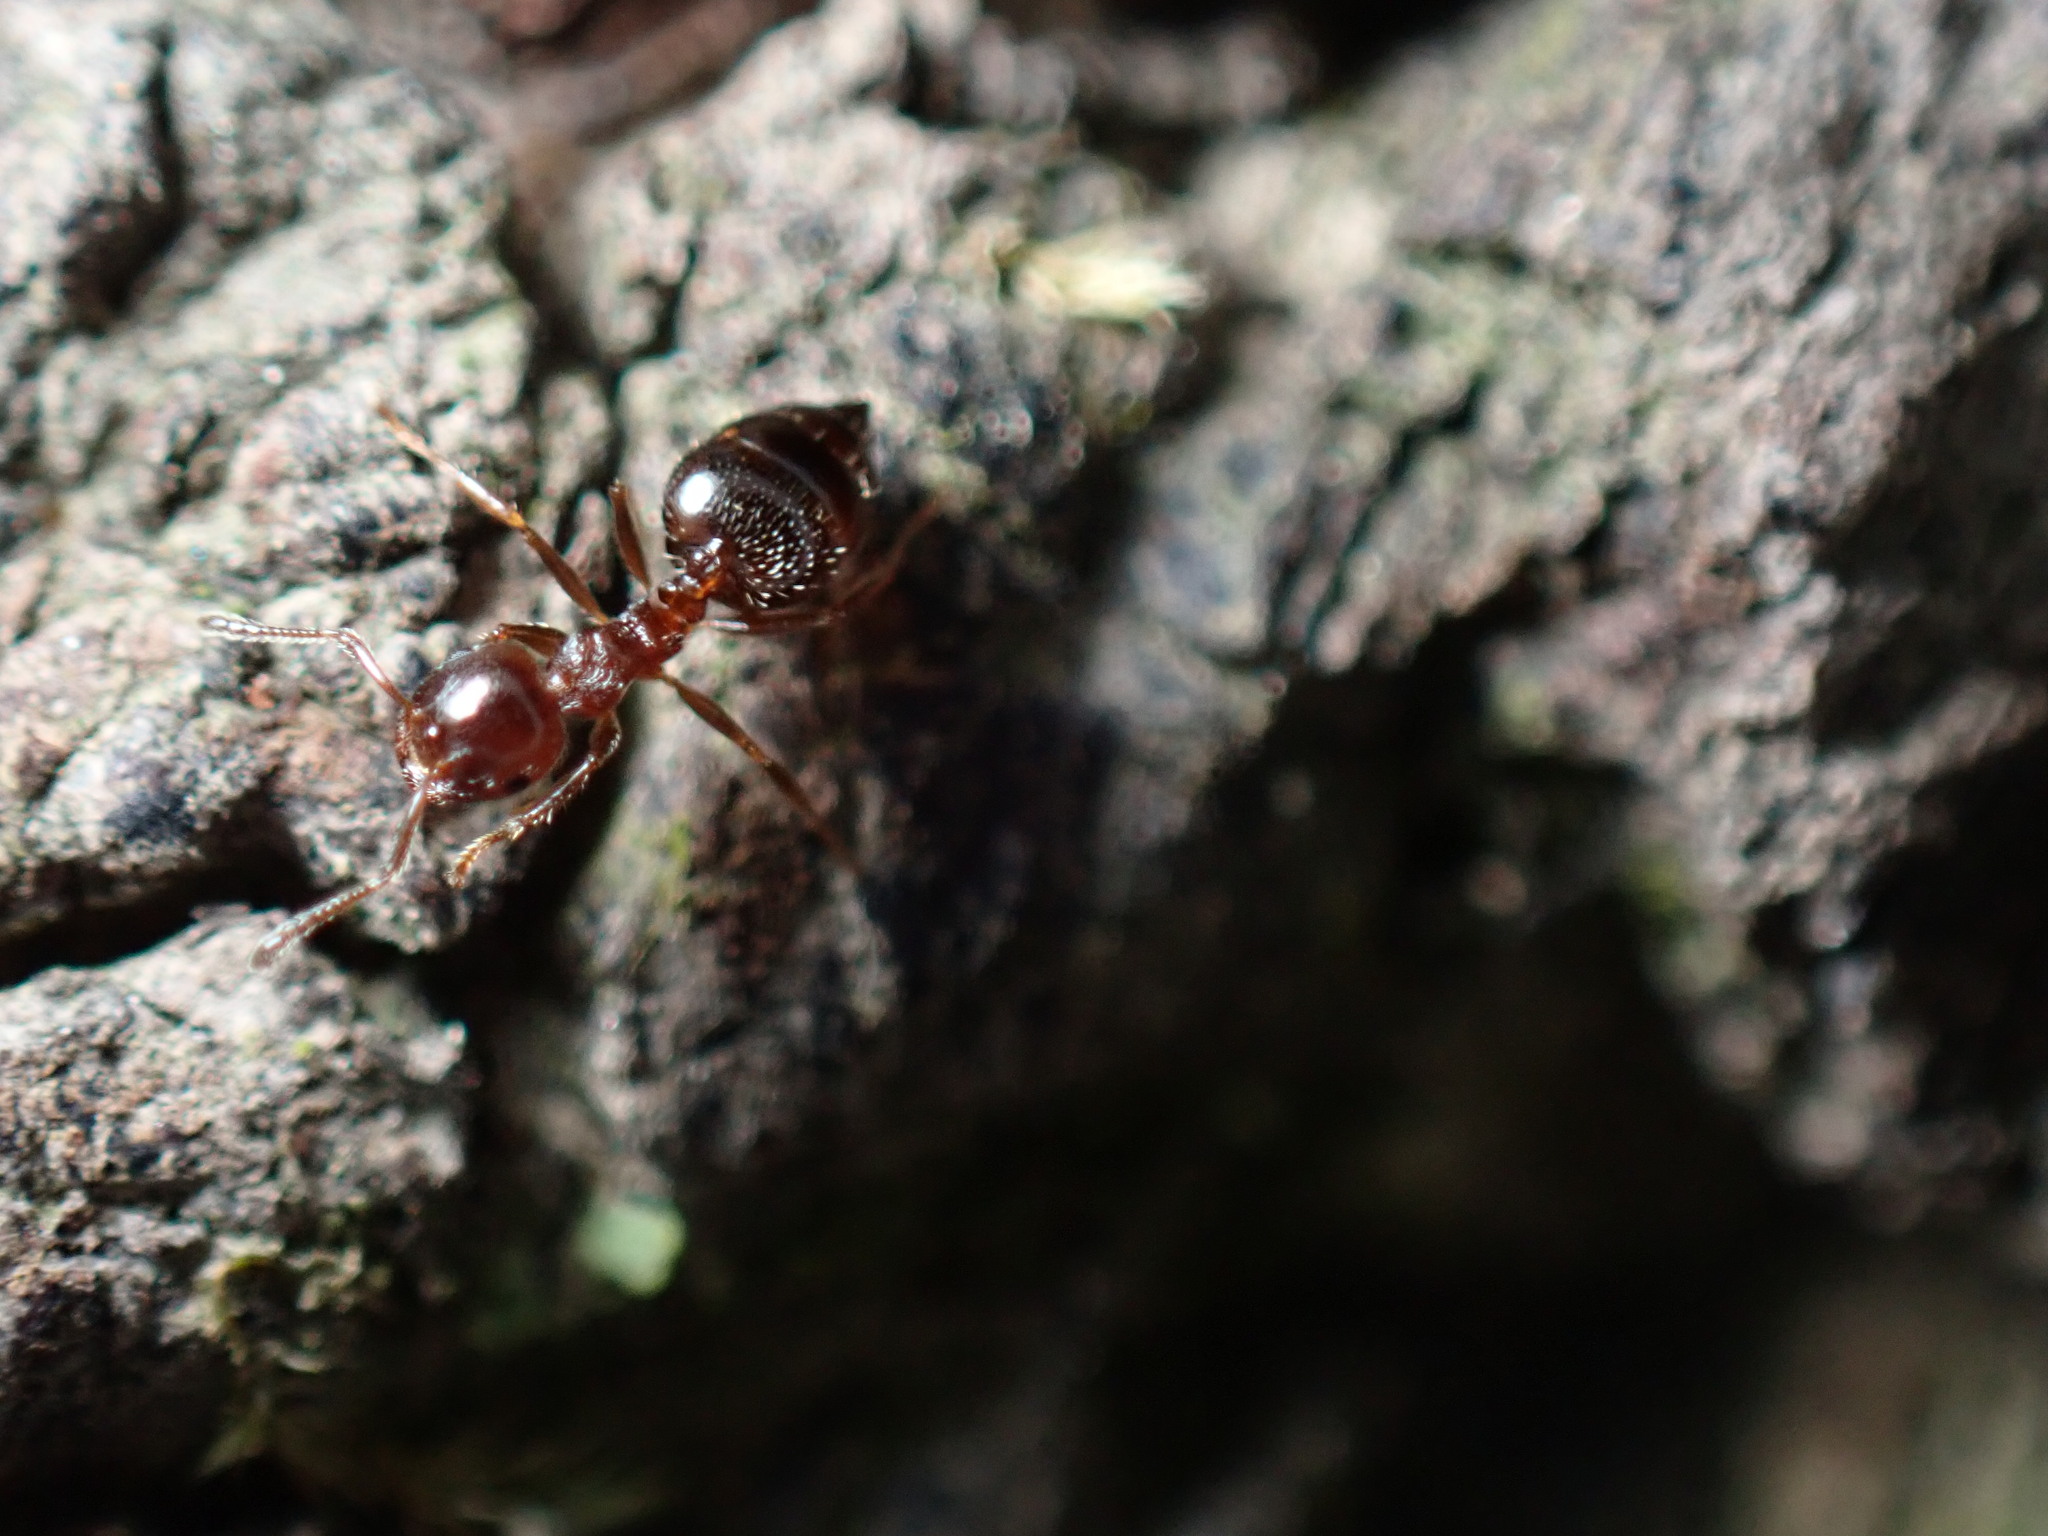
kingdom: Animalia
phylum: Arthropoda
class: Insecta
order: Hymenoptera
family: Formicidae
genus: Crematogaster
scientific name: Crematogaster matsumurai
